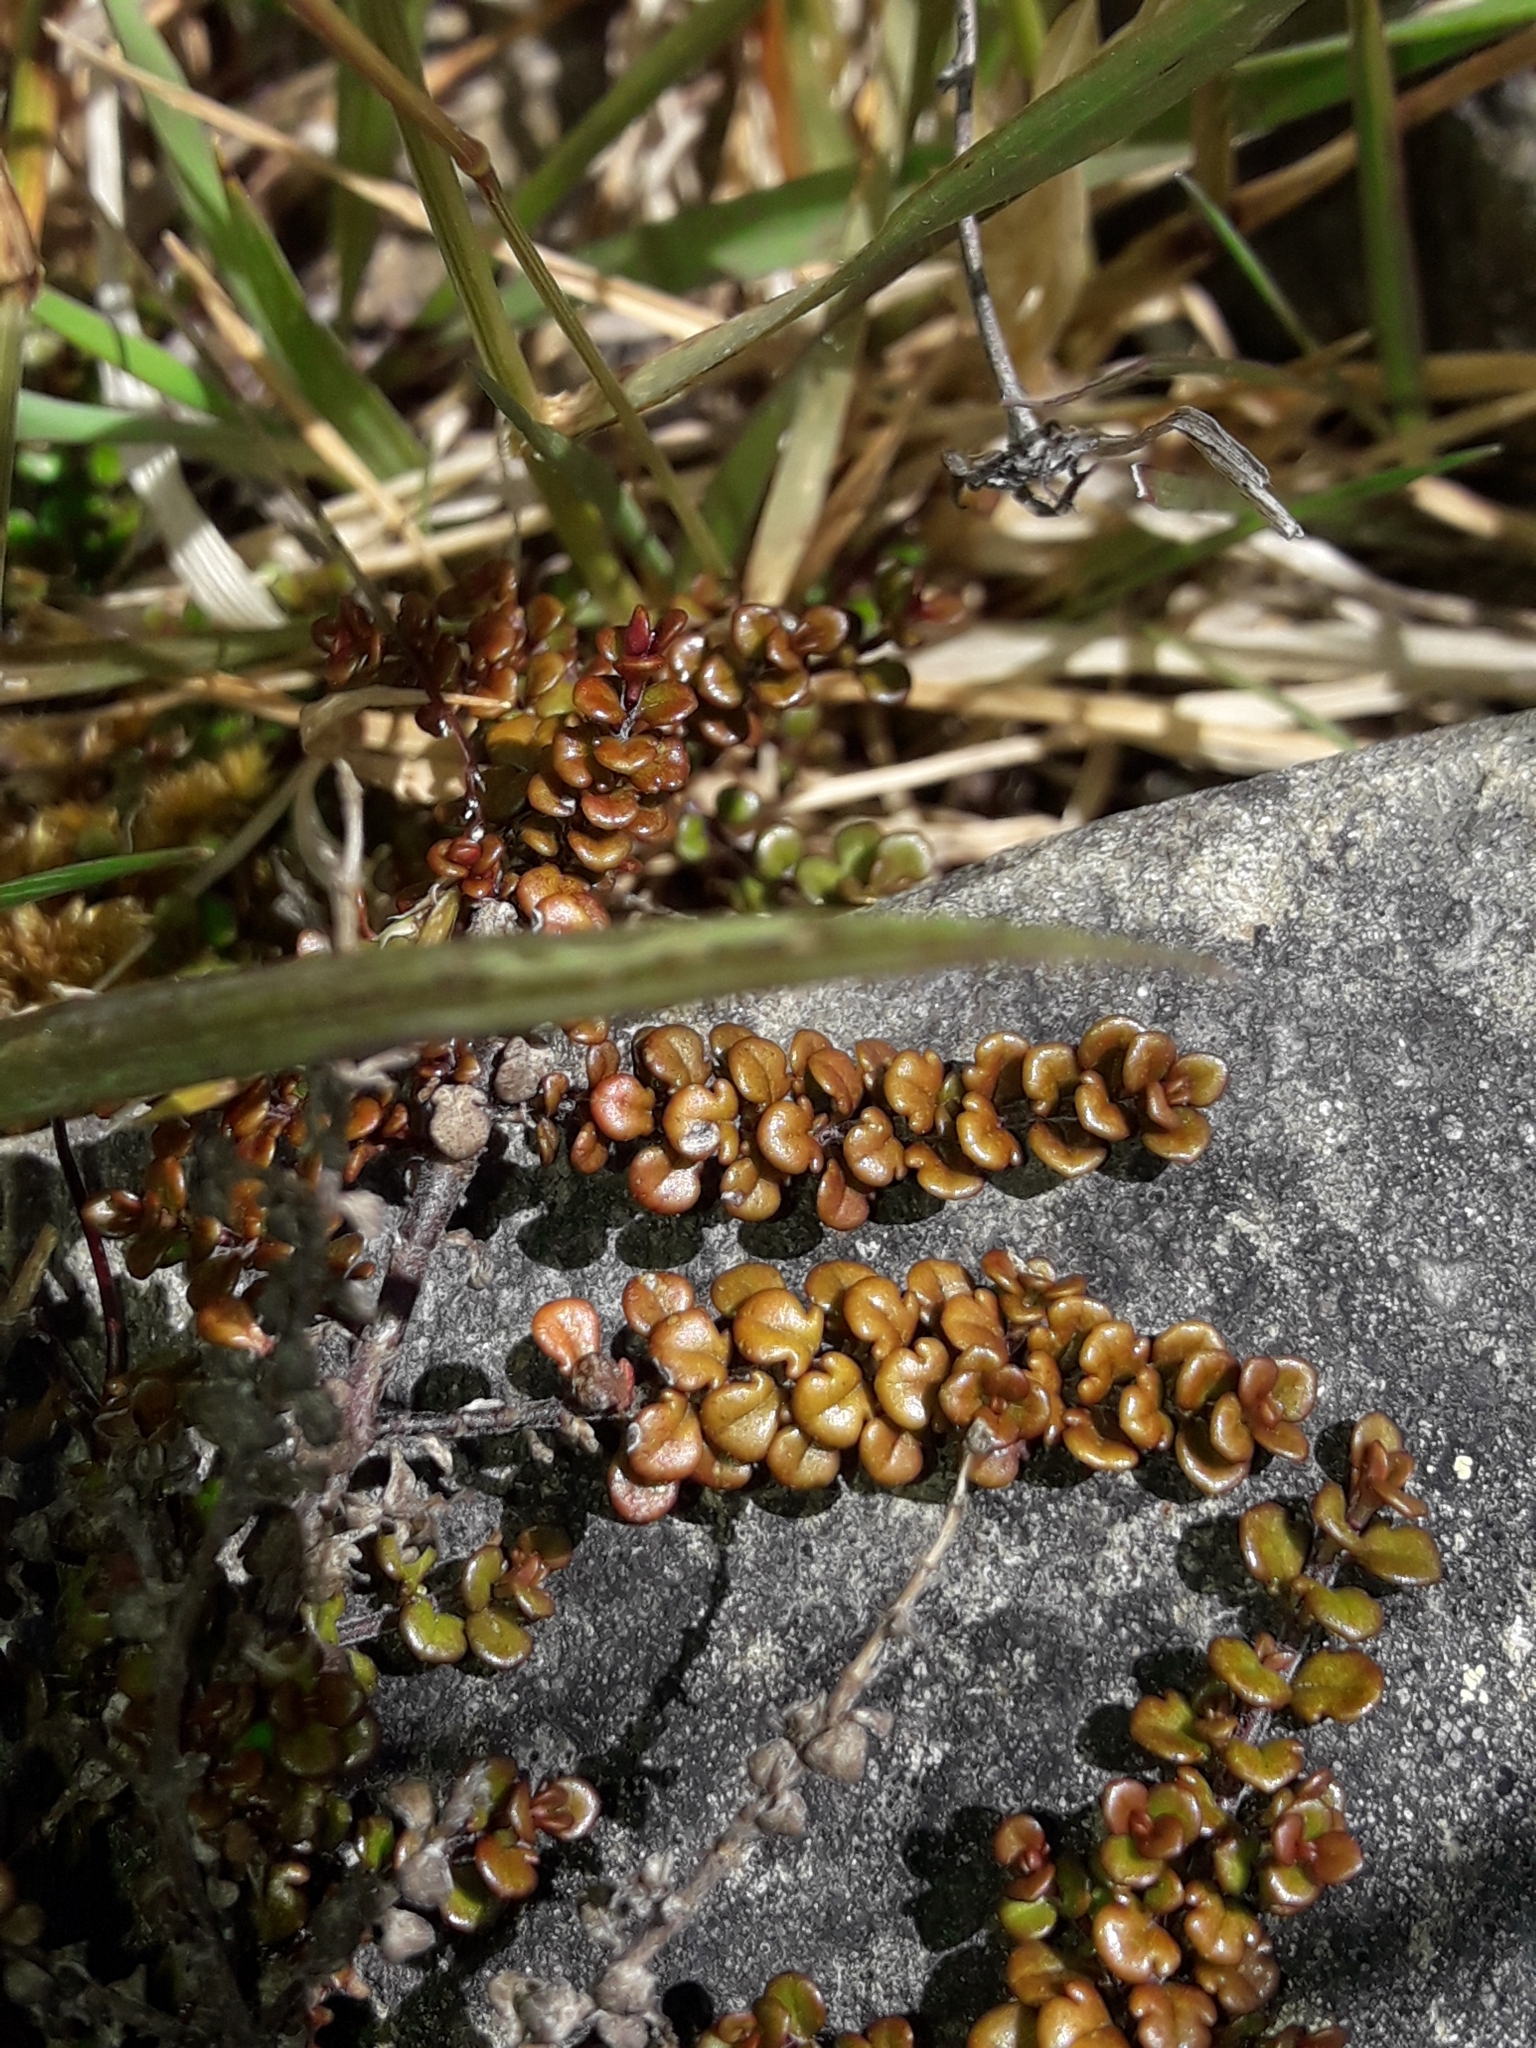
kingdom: Plantae
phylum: Tracheophyta
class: Magnoliopsida
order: Lamiales
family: Plantaginaceae
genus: Veronica
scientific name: Veronica decora
